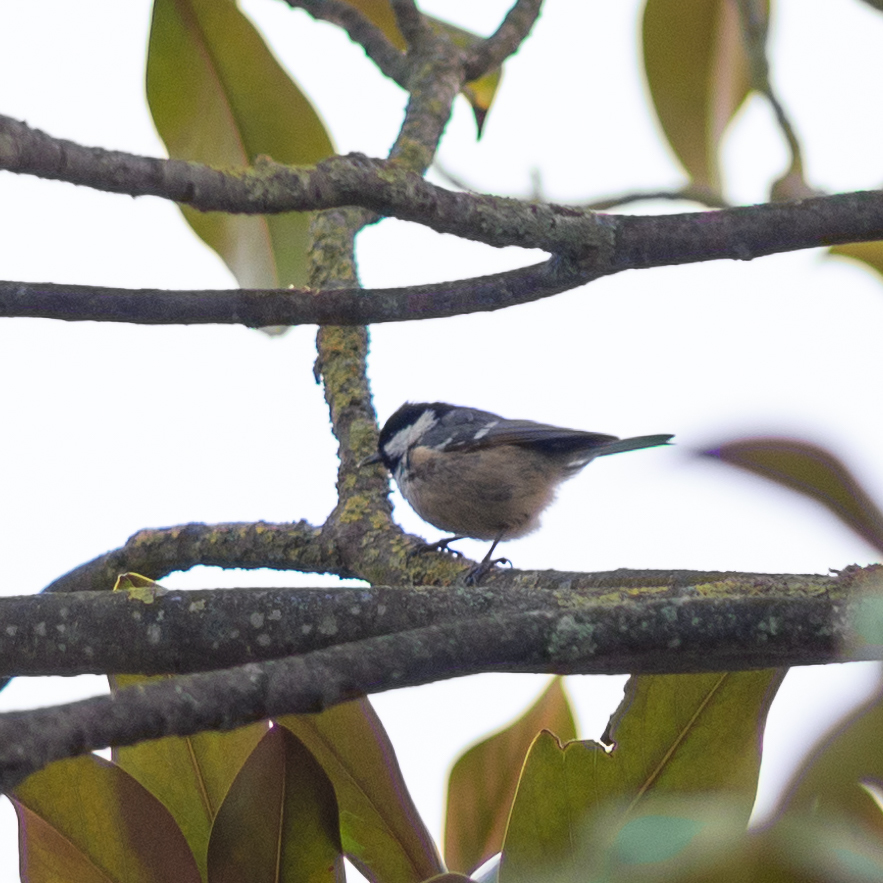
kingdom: Animalia
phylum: Chordata
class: Aves
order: Passeriformes
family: Paridae
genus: Periparus
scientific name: Periparus ater
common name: Coal tit
